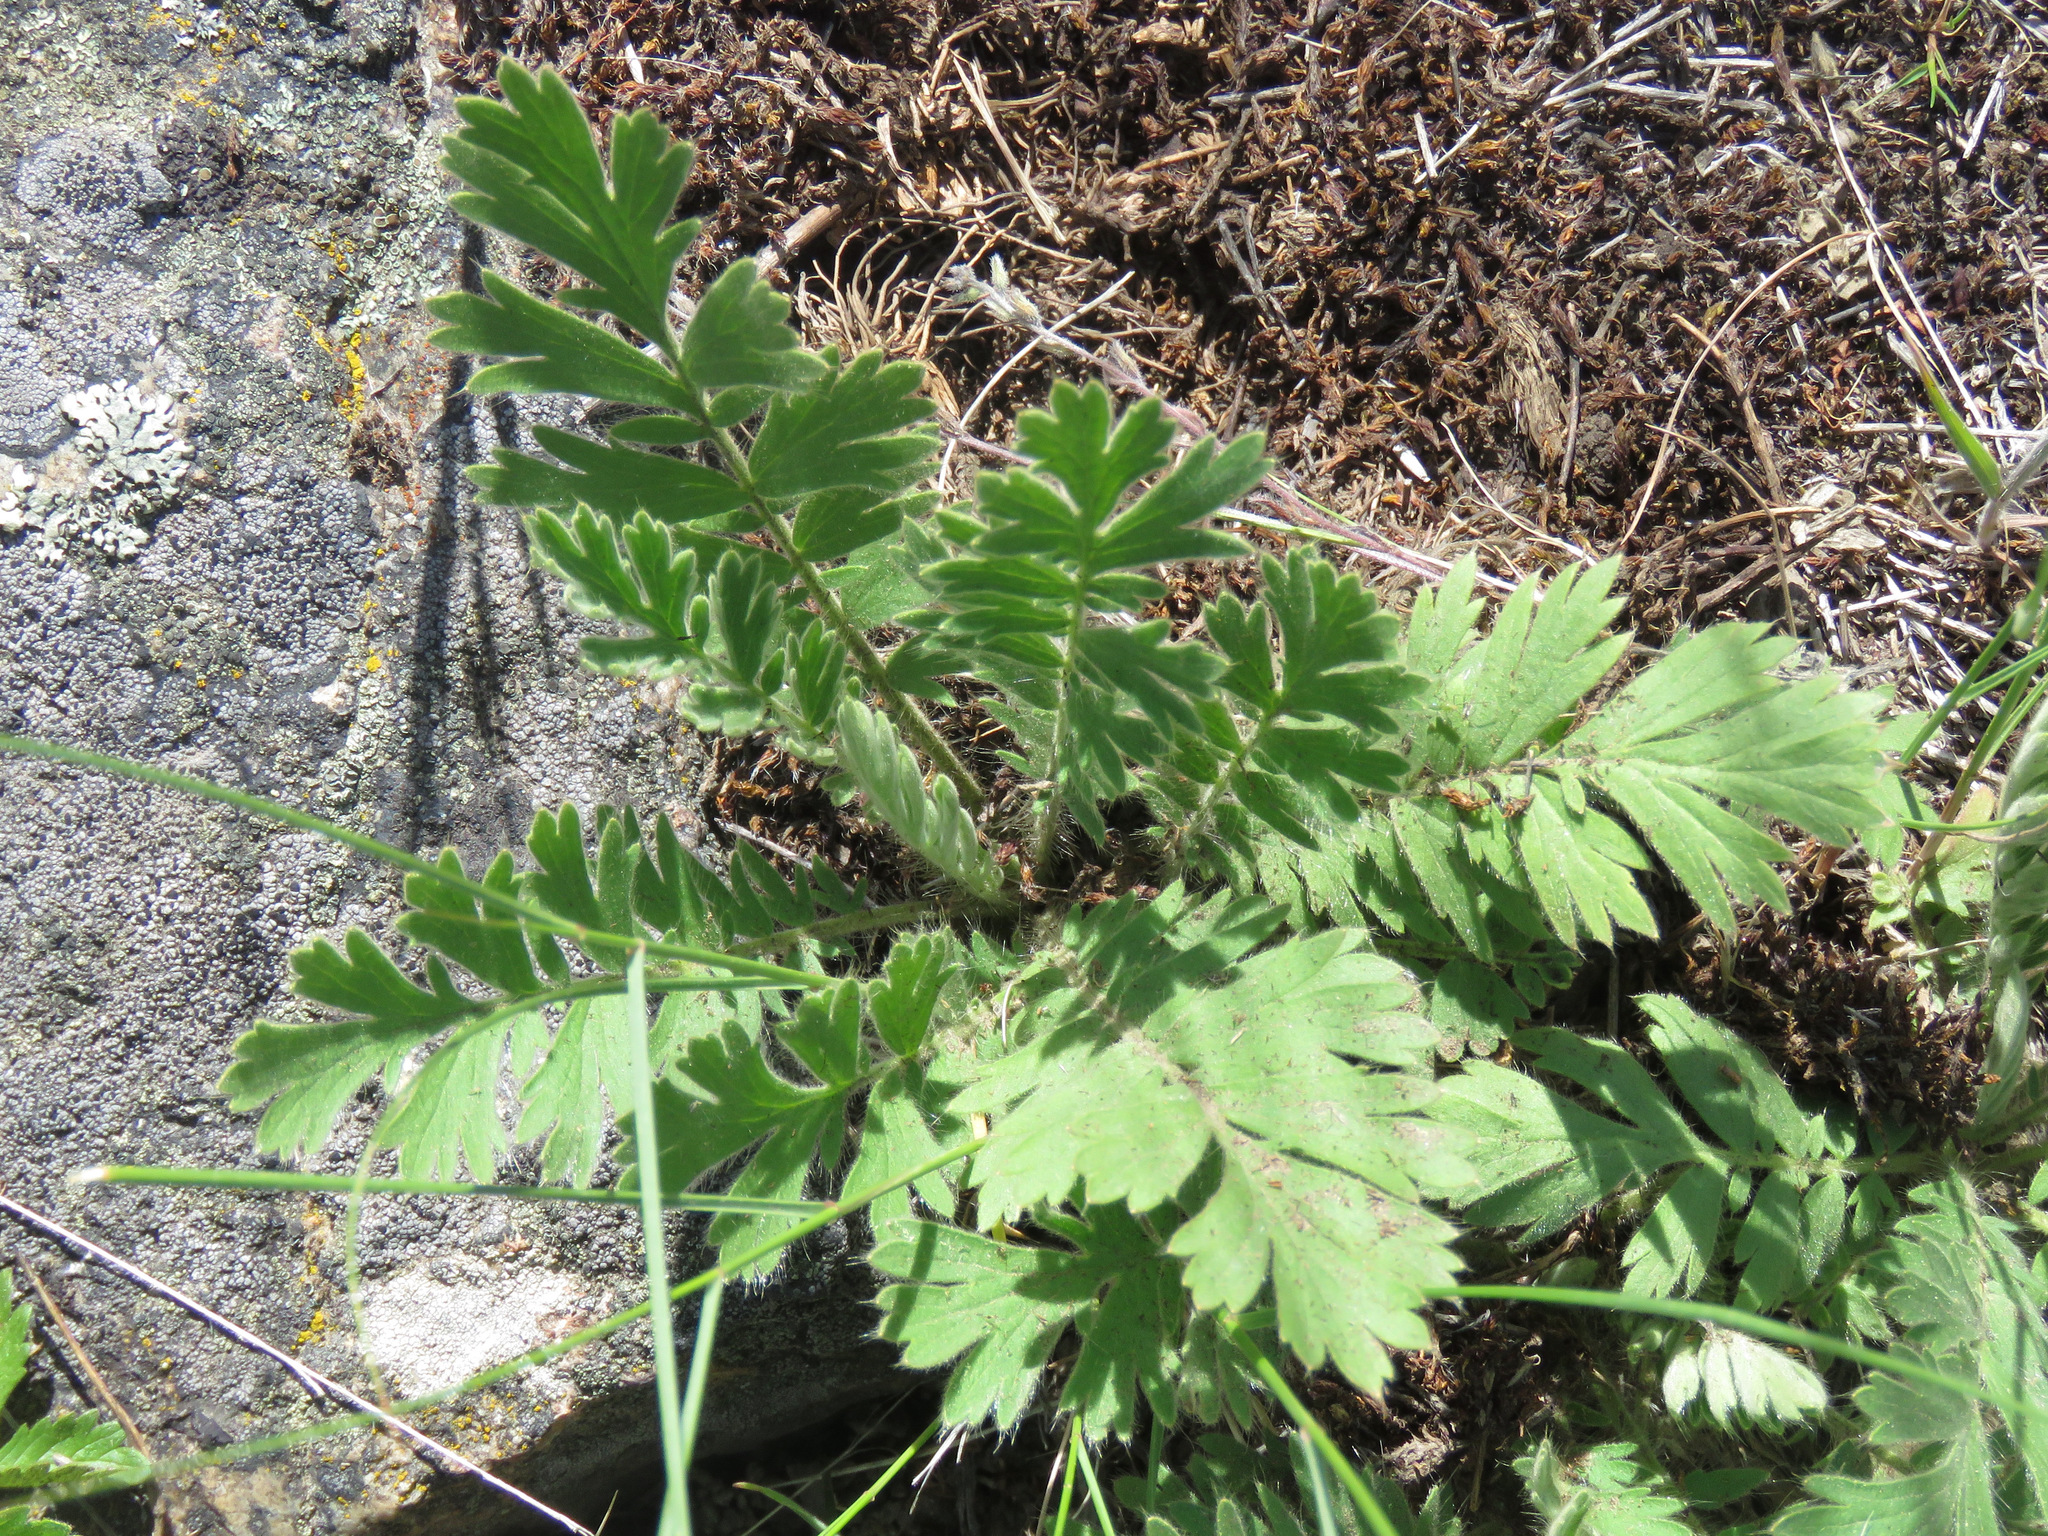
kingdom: Plantae
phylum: Tracheophyta
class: Magnoliopsida
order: Rosales
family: Rosaceae
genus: Geum
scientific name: Geum triflorum
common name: Old man's whiskers
